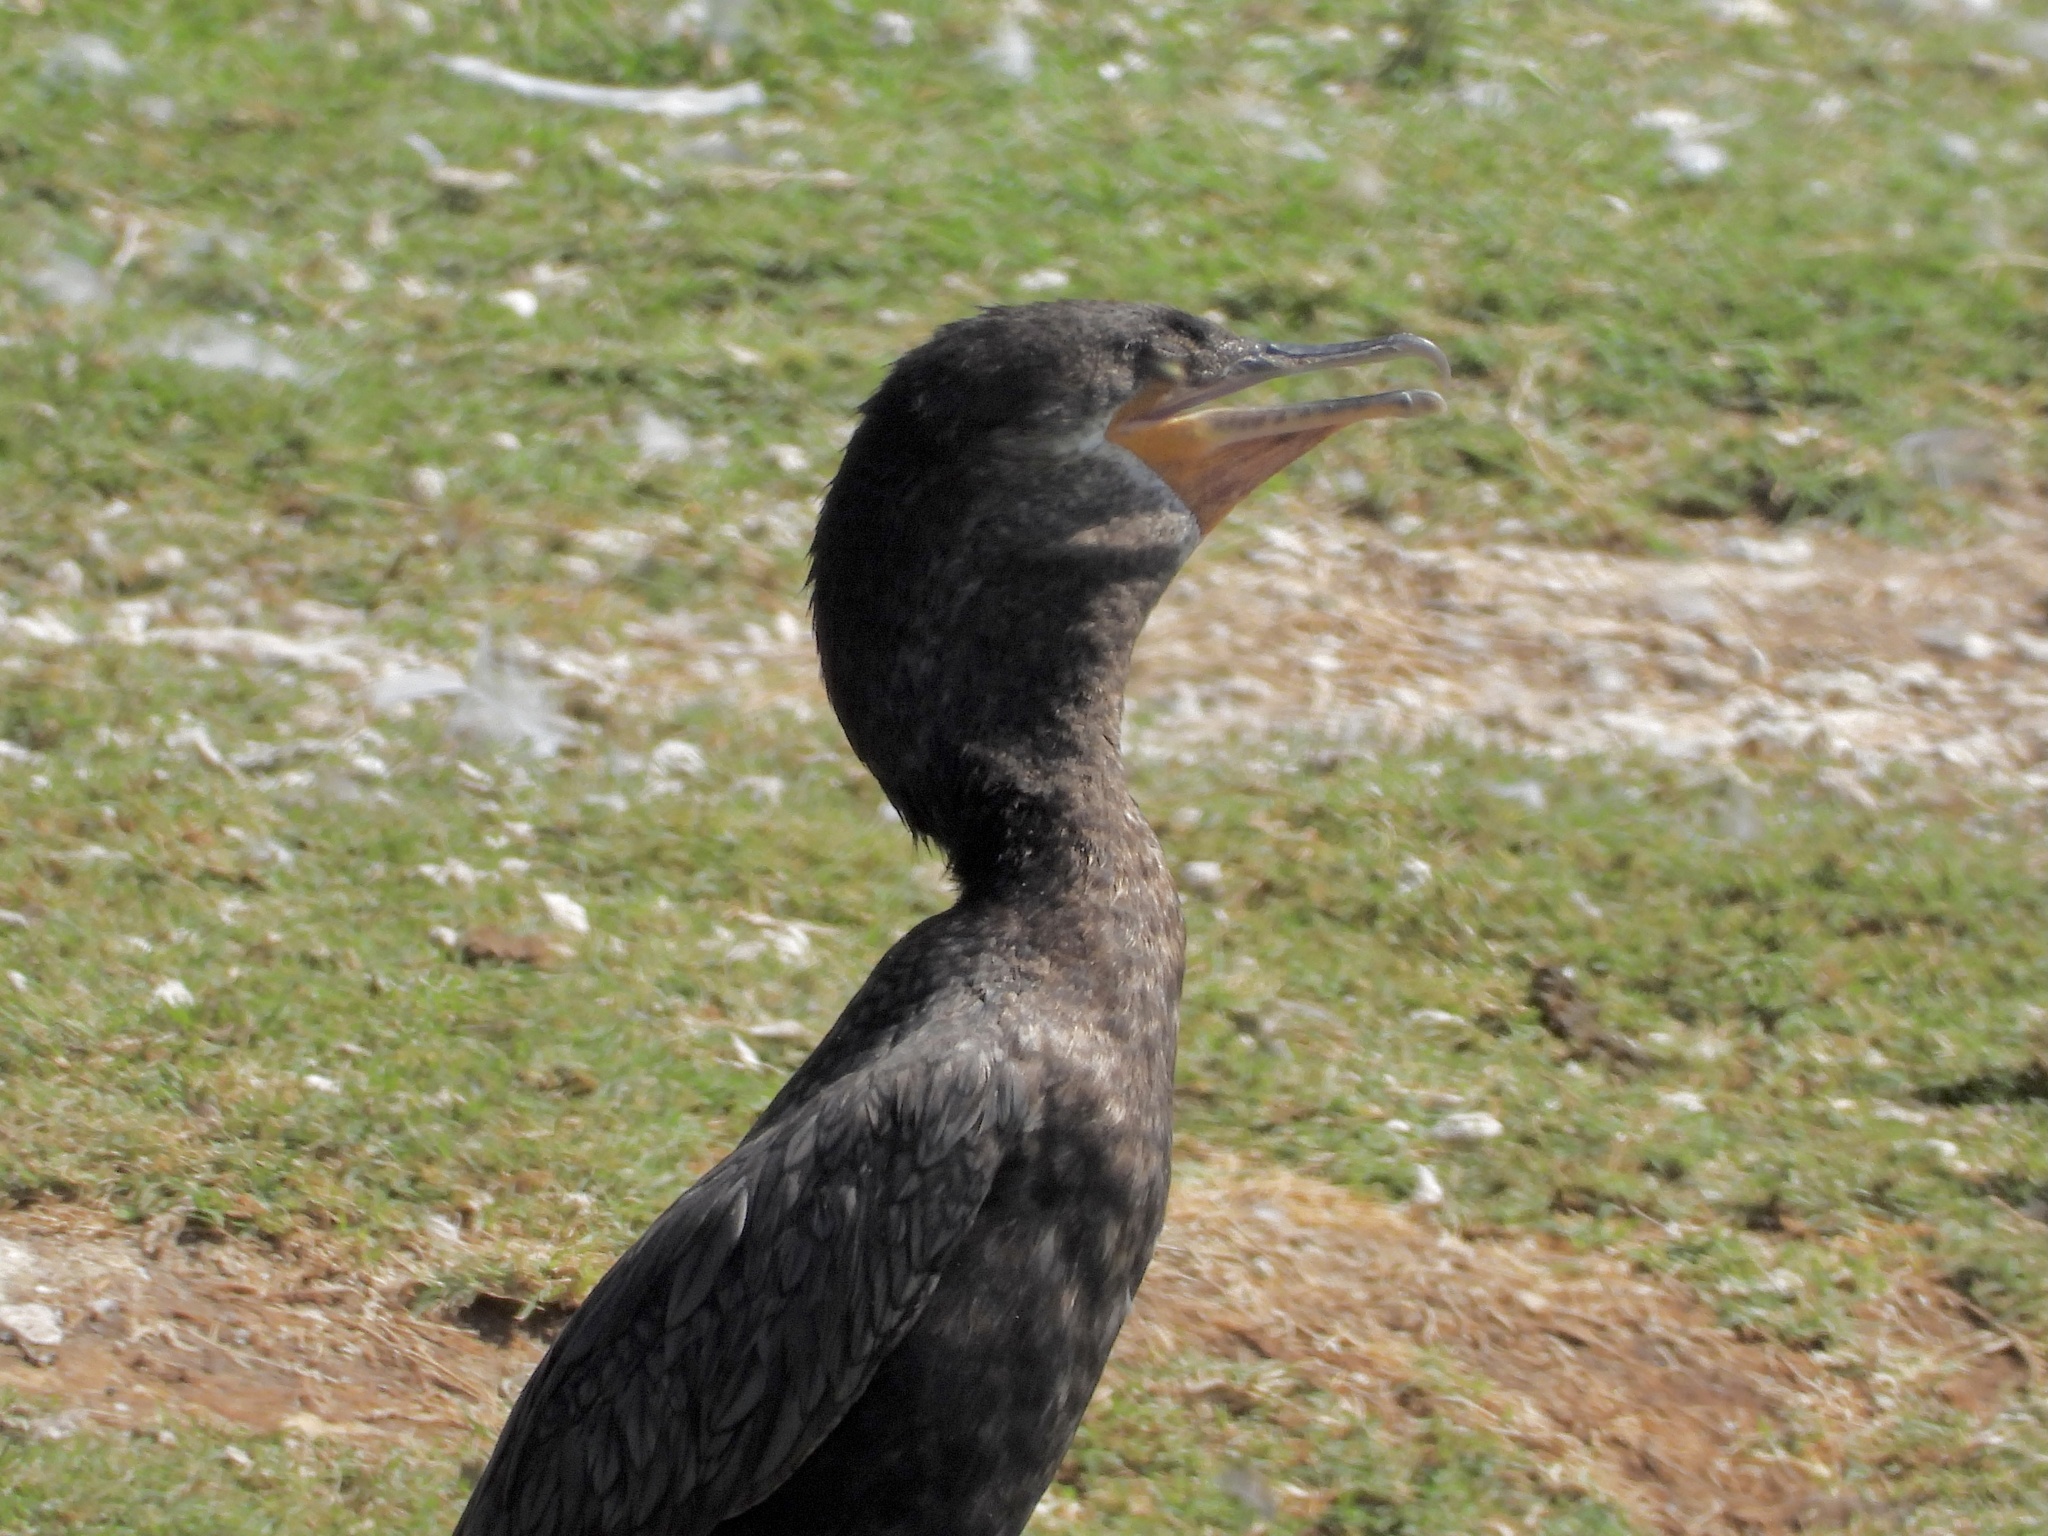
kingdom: Animalia
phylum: Chordata
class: Aves
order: Suliformes
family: Phalacrocoracidae
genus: Phalacrocorax
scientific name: Phalacrocorax brasilianus
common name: Neotropic cormorant
